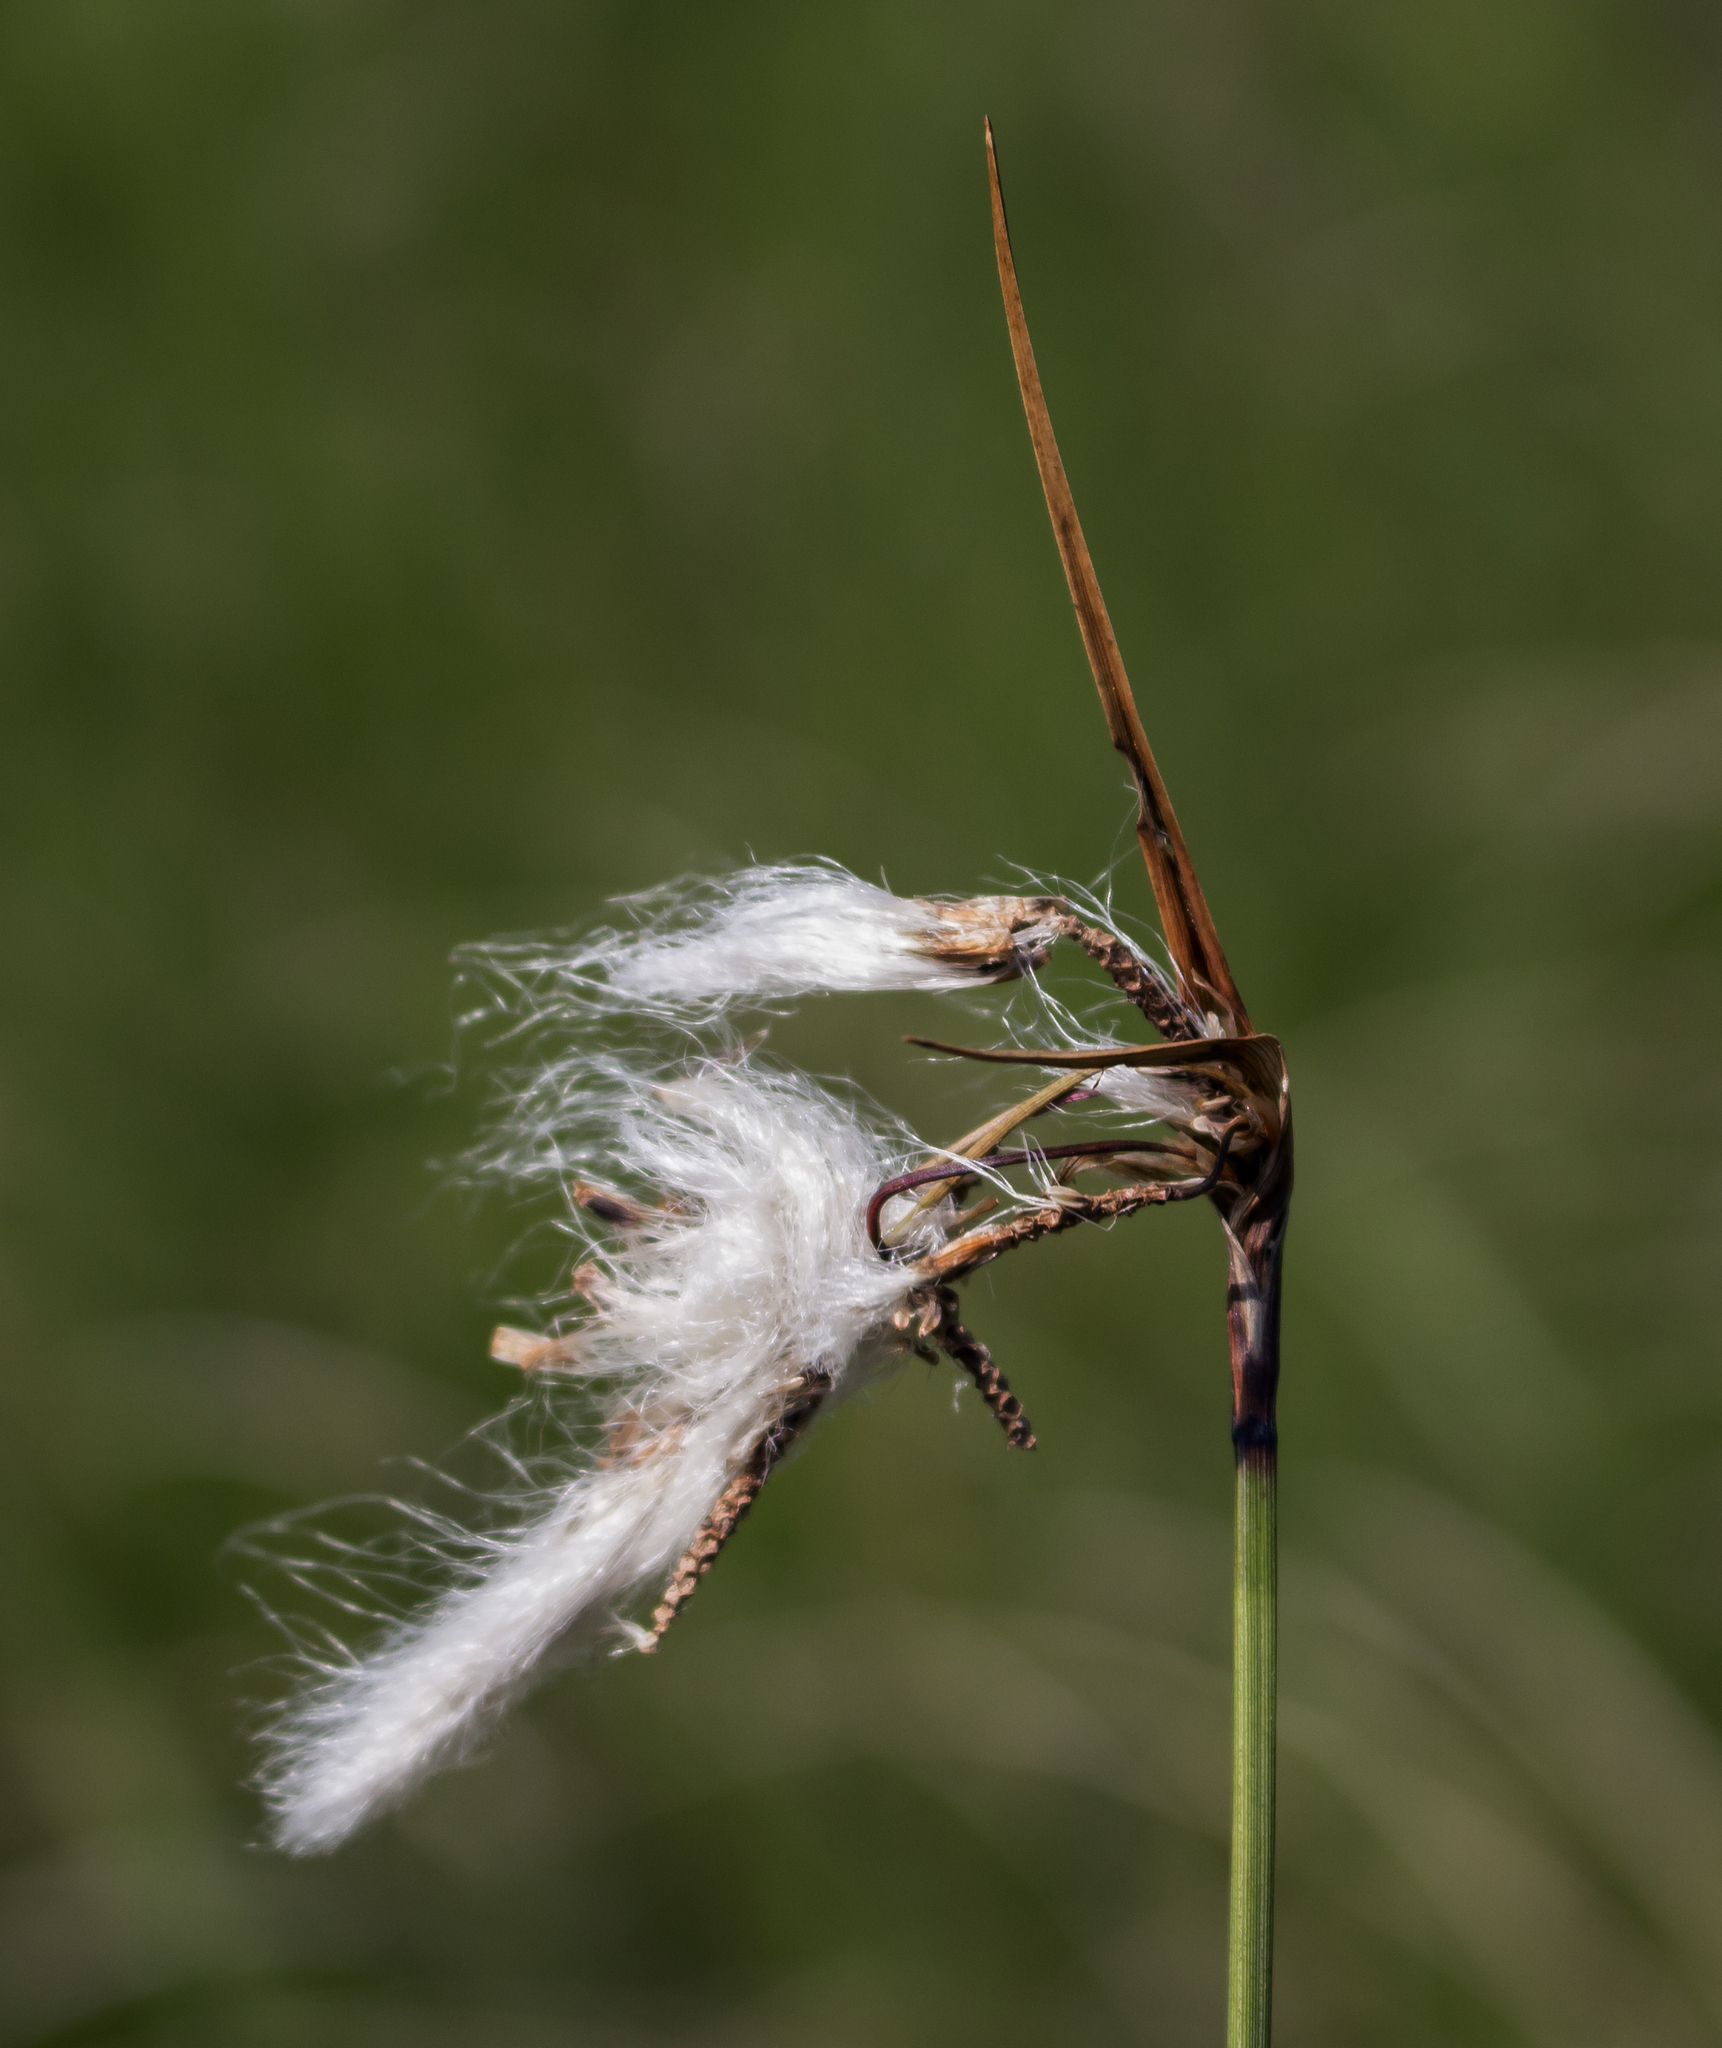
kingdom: Plantae
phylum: Tracheophyta
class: Liliopsida
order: Poales
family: Cyperaceae
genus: Eriophorum
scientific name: Eriophorum angustifolium
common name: Common cottongrass
